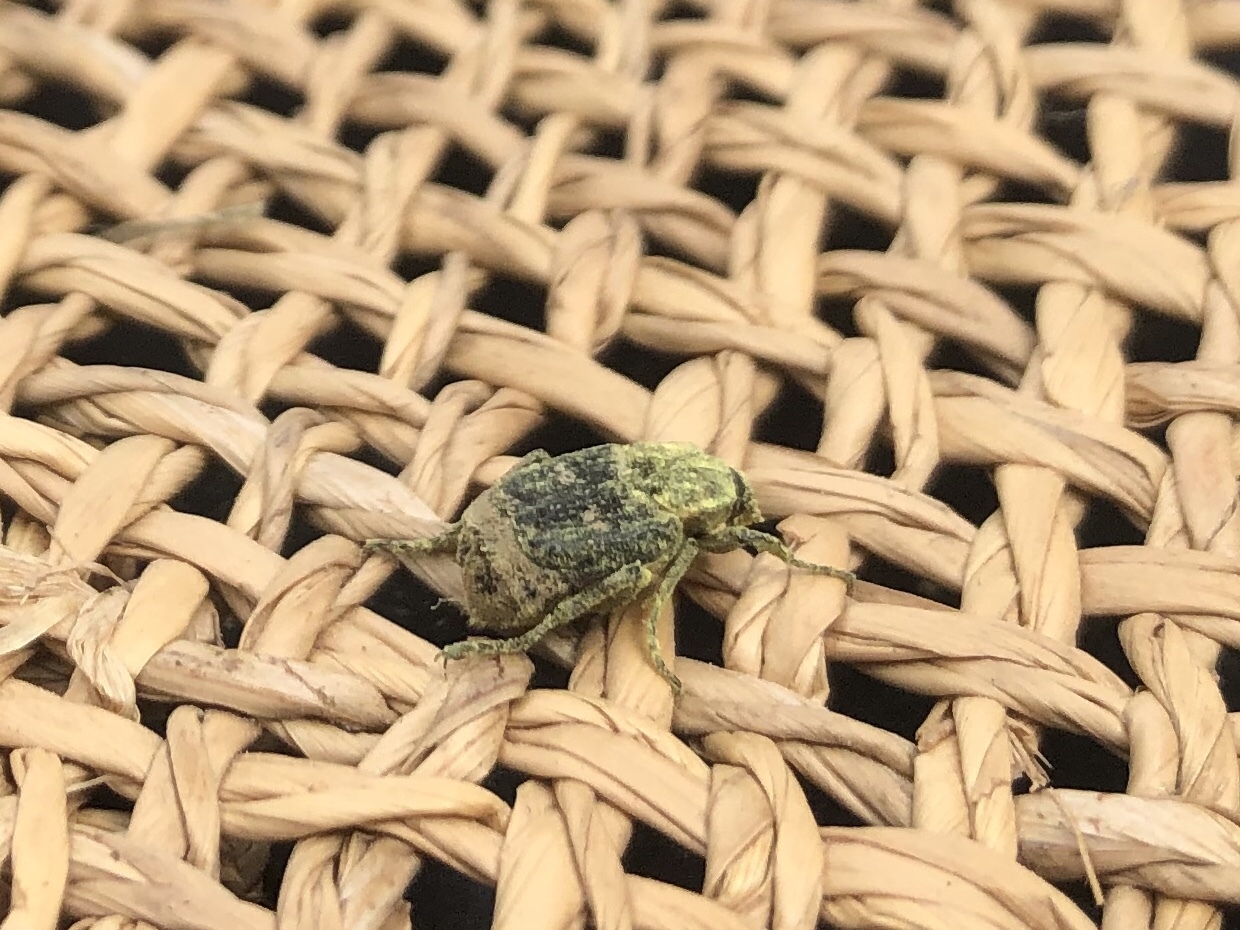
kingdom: Animalia
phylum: Arthropoda
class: Insecta
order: Coleoptera
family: Scarabaeidae
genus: Valgus
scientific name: Valgus hemipterus
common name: Bug flower chafer
